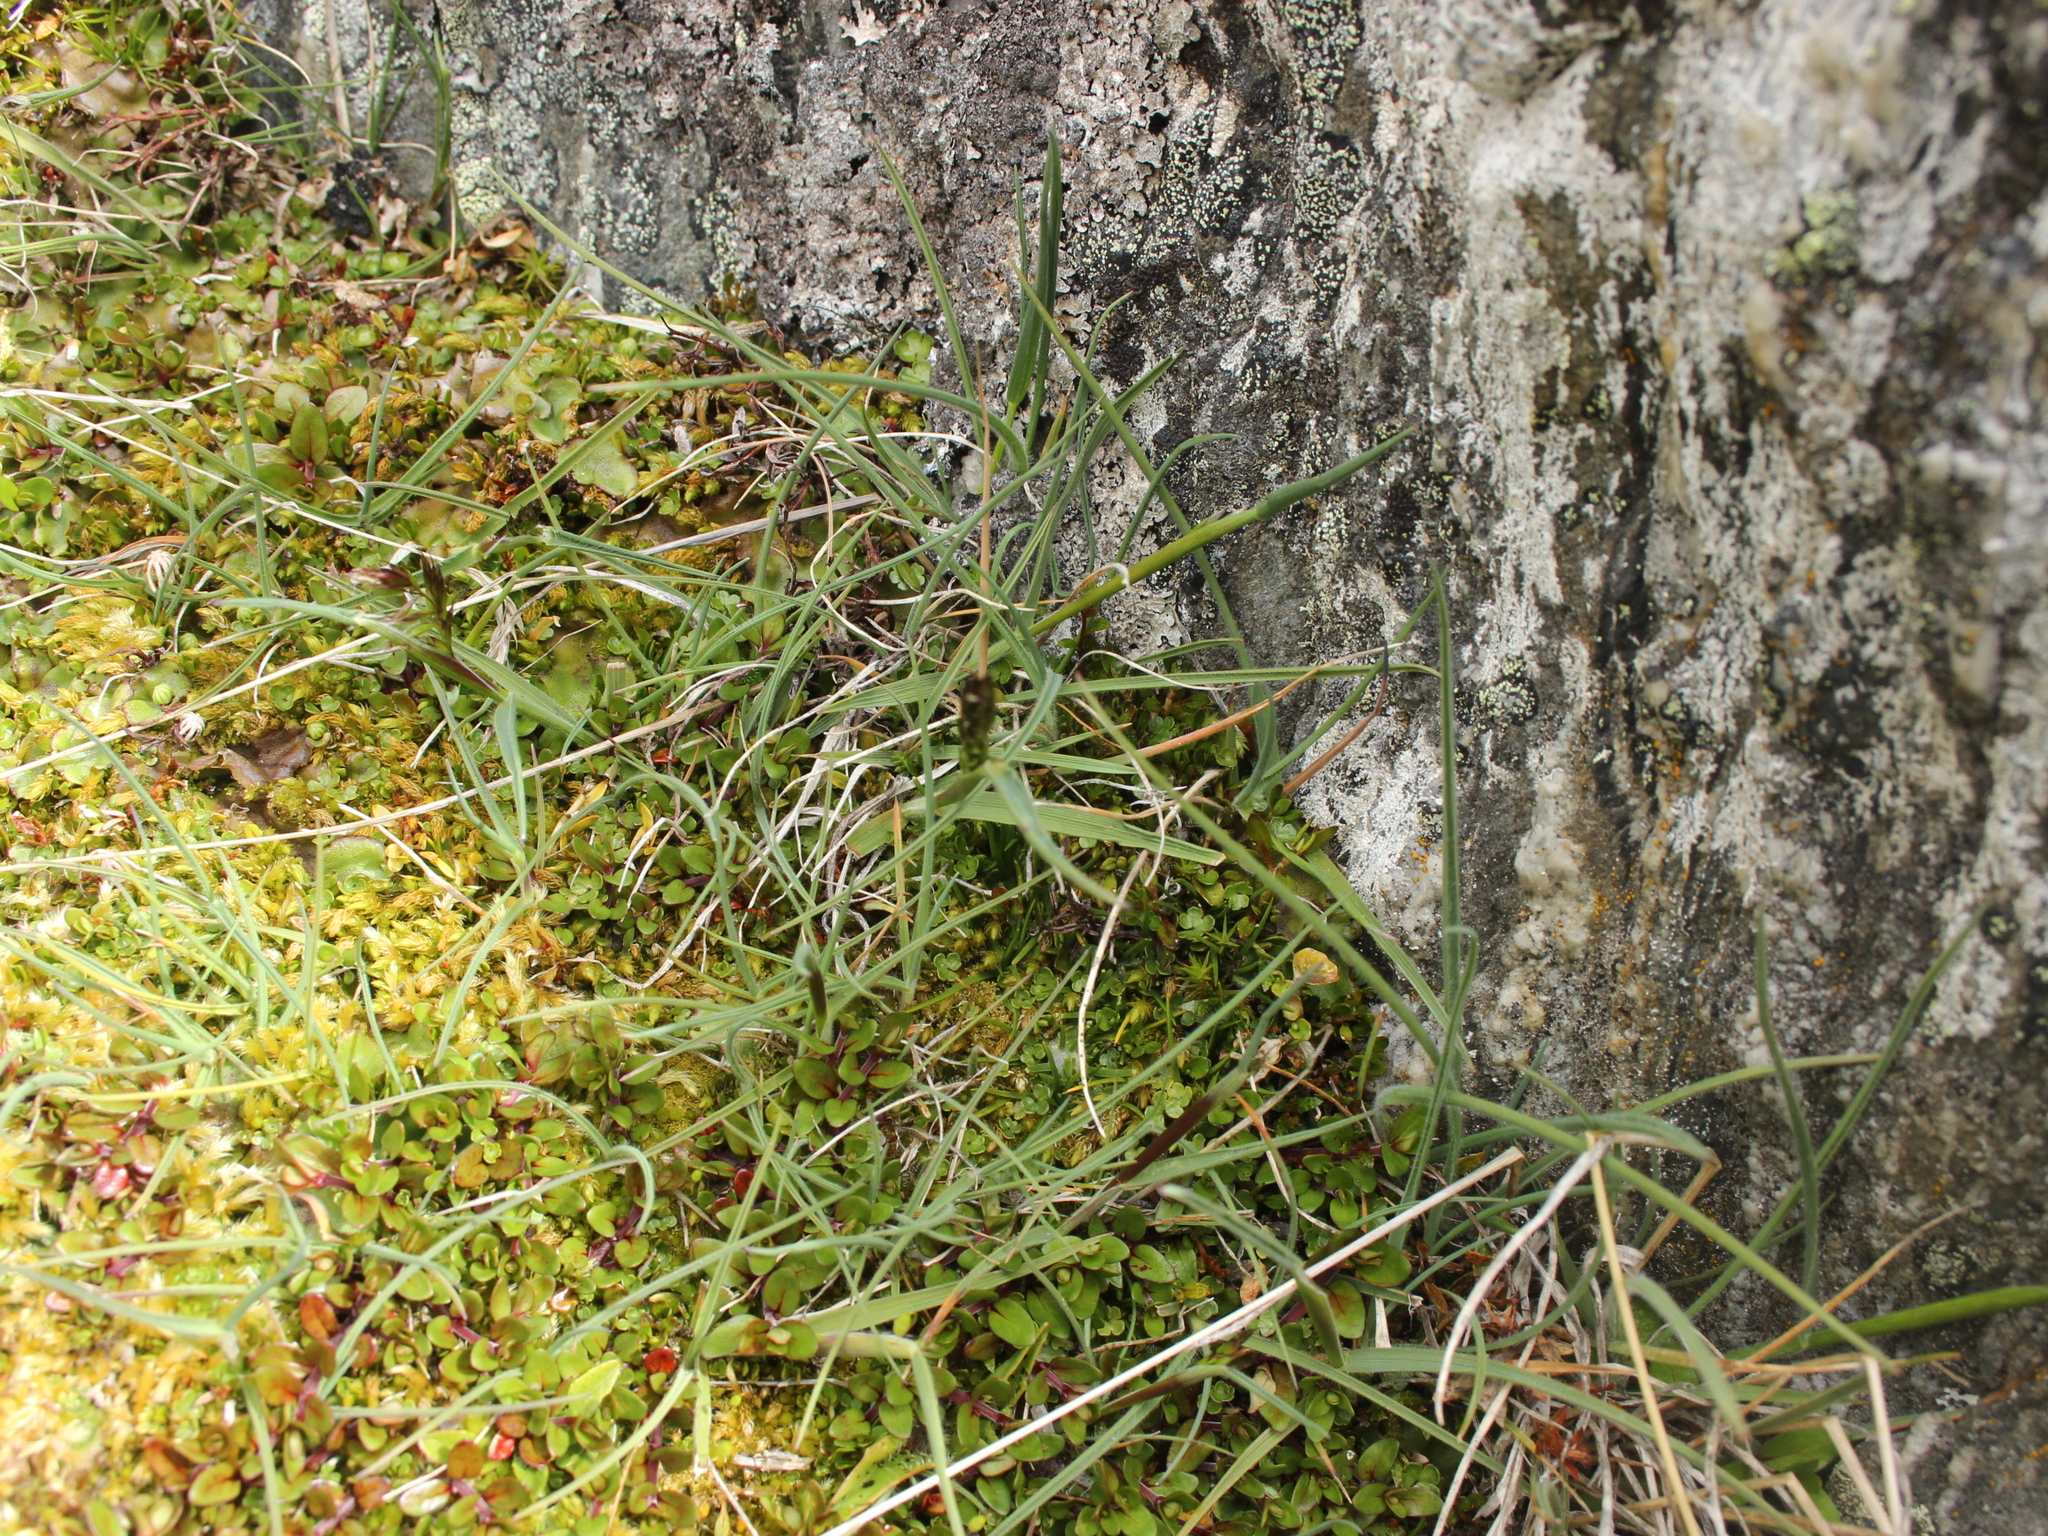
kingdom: Plantae
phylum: Tracheophyta
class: Liliopsida
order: Poales
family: Poaceae
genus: Koeleria
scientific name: Koeleria cheesemanii
